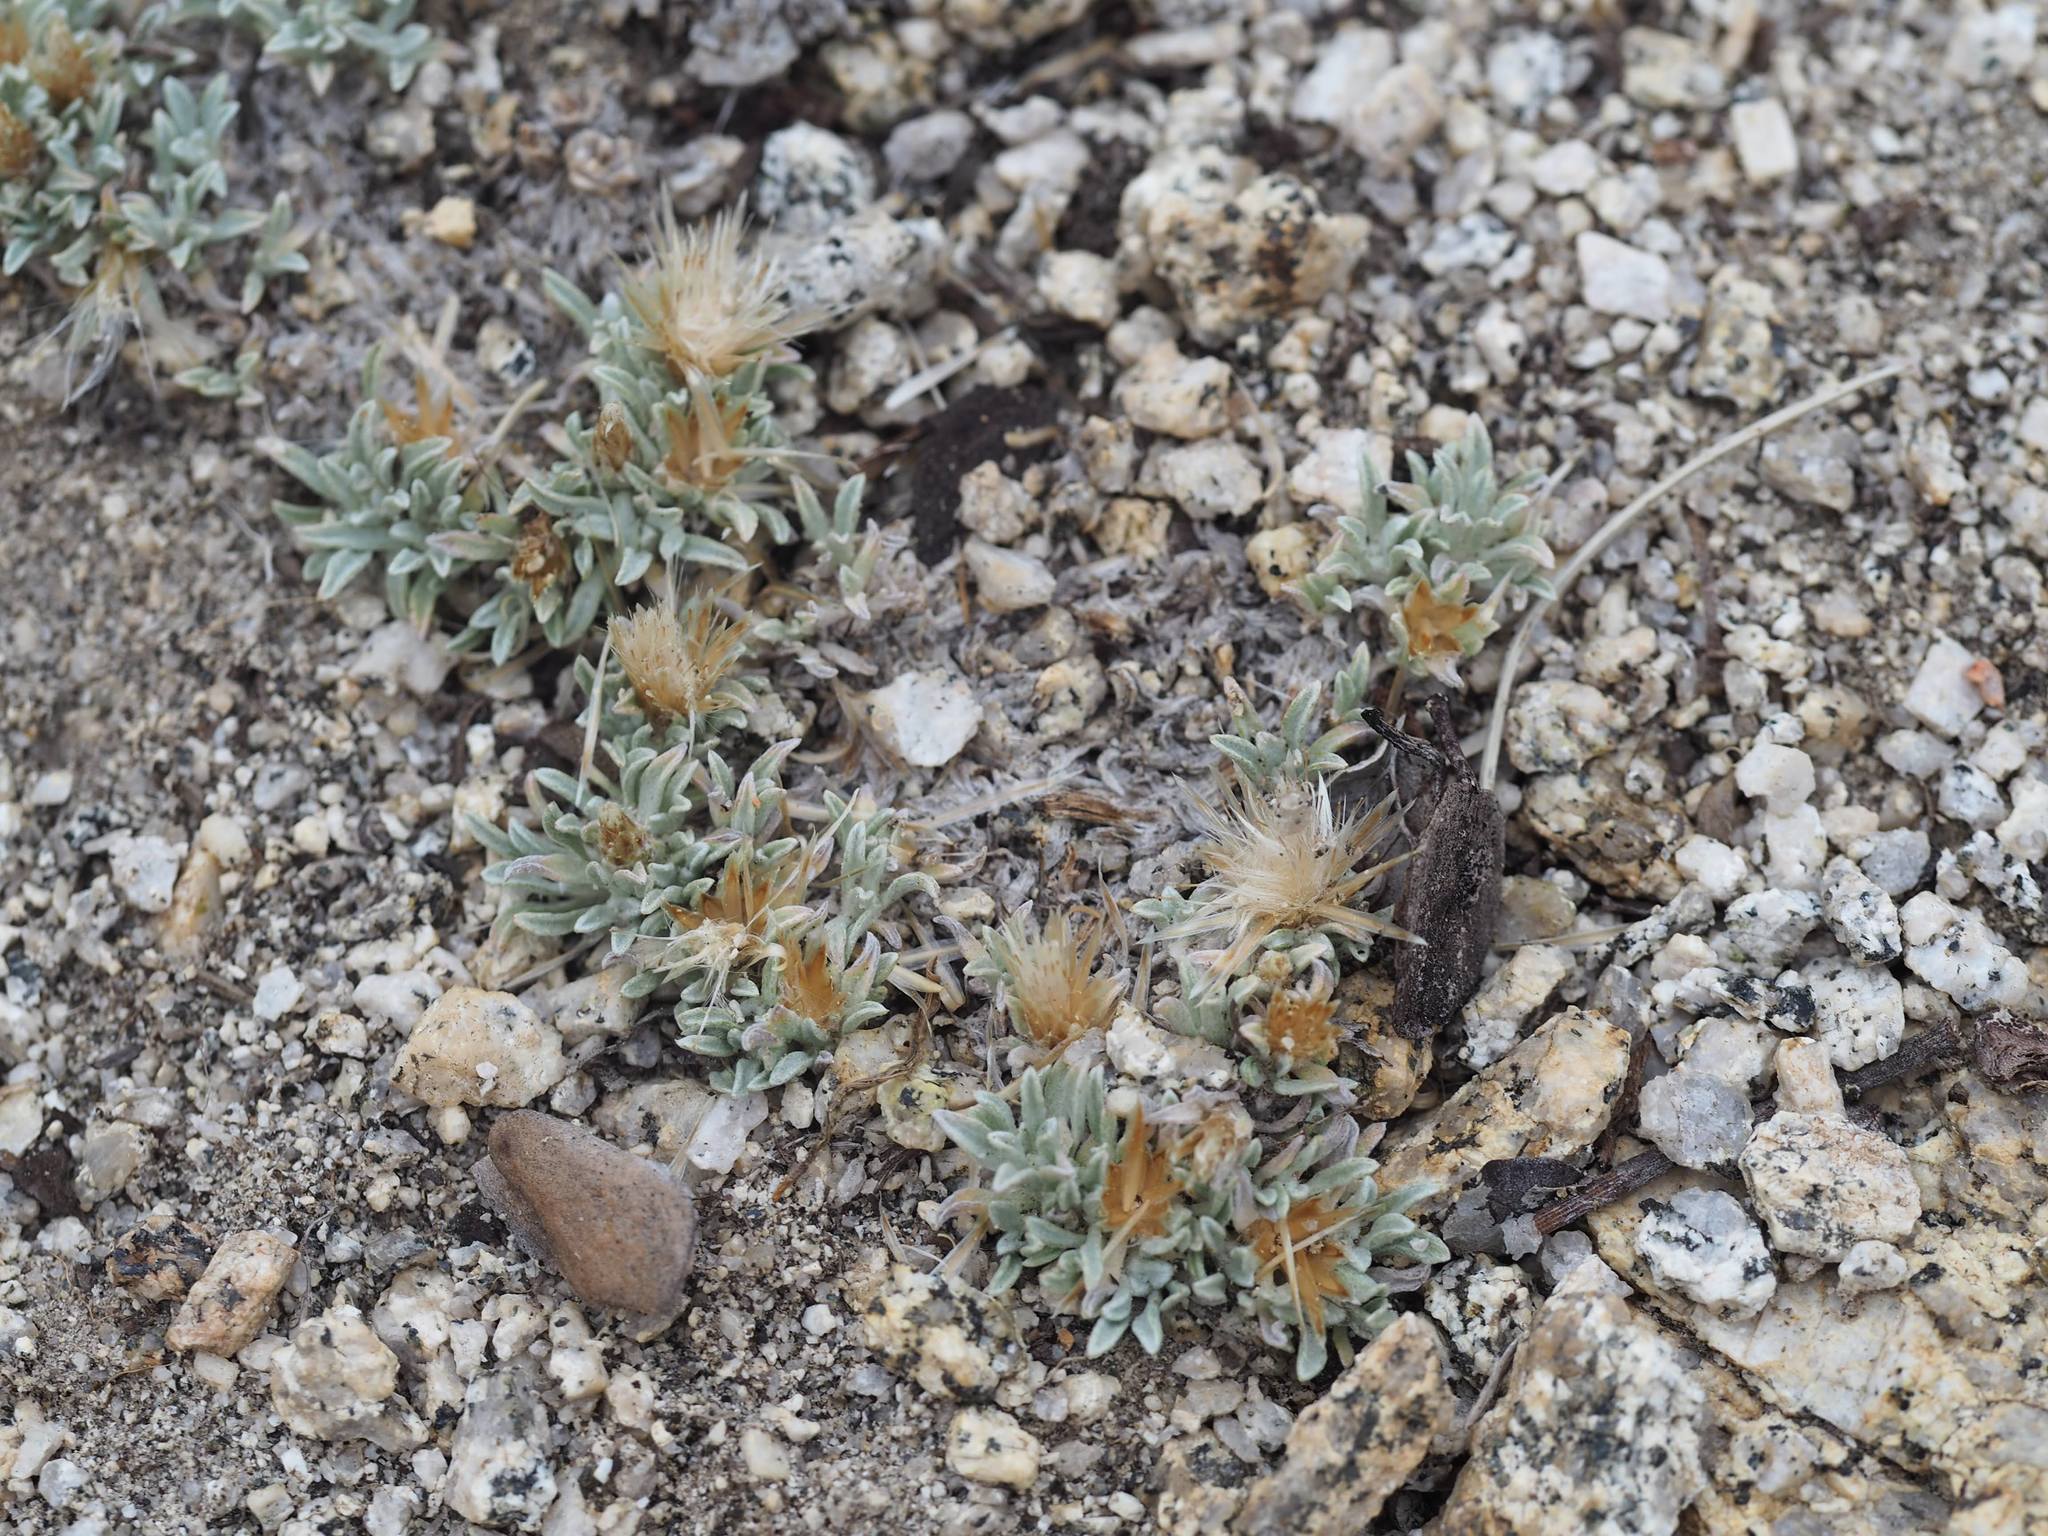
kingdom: Plantae
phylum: Tracheophyta
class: Magnoliopsida
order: Asterales
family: Asteraceae
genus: Antennaria
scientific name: Antennaria dimorpha
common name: Cushion pussytoes
